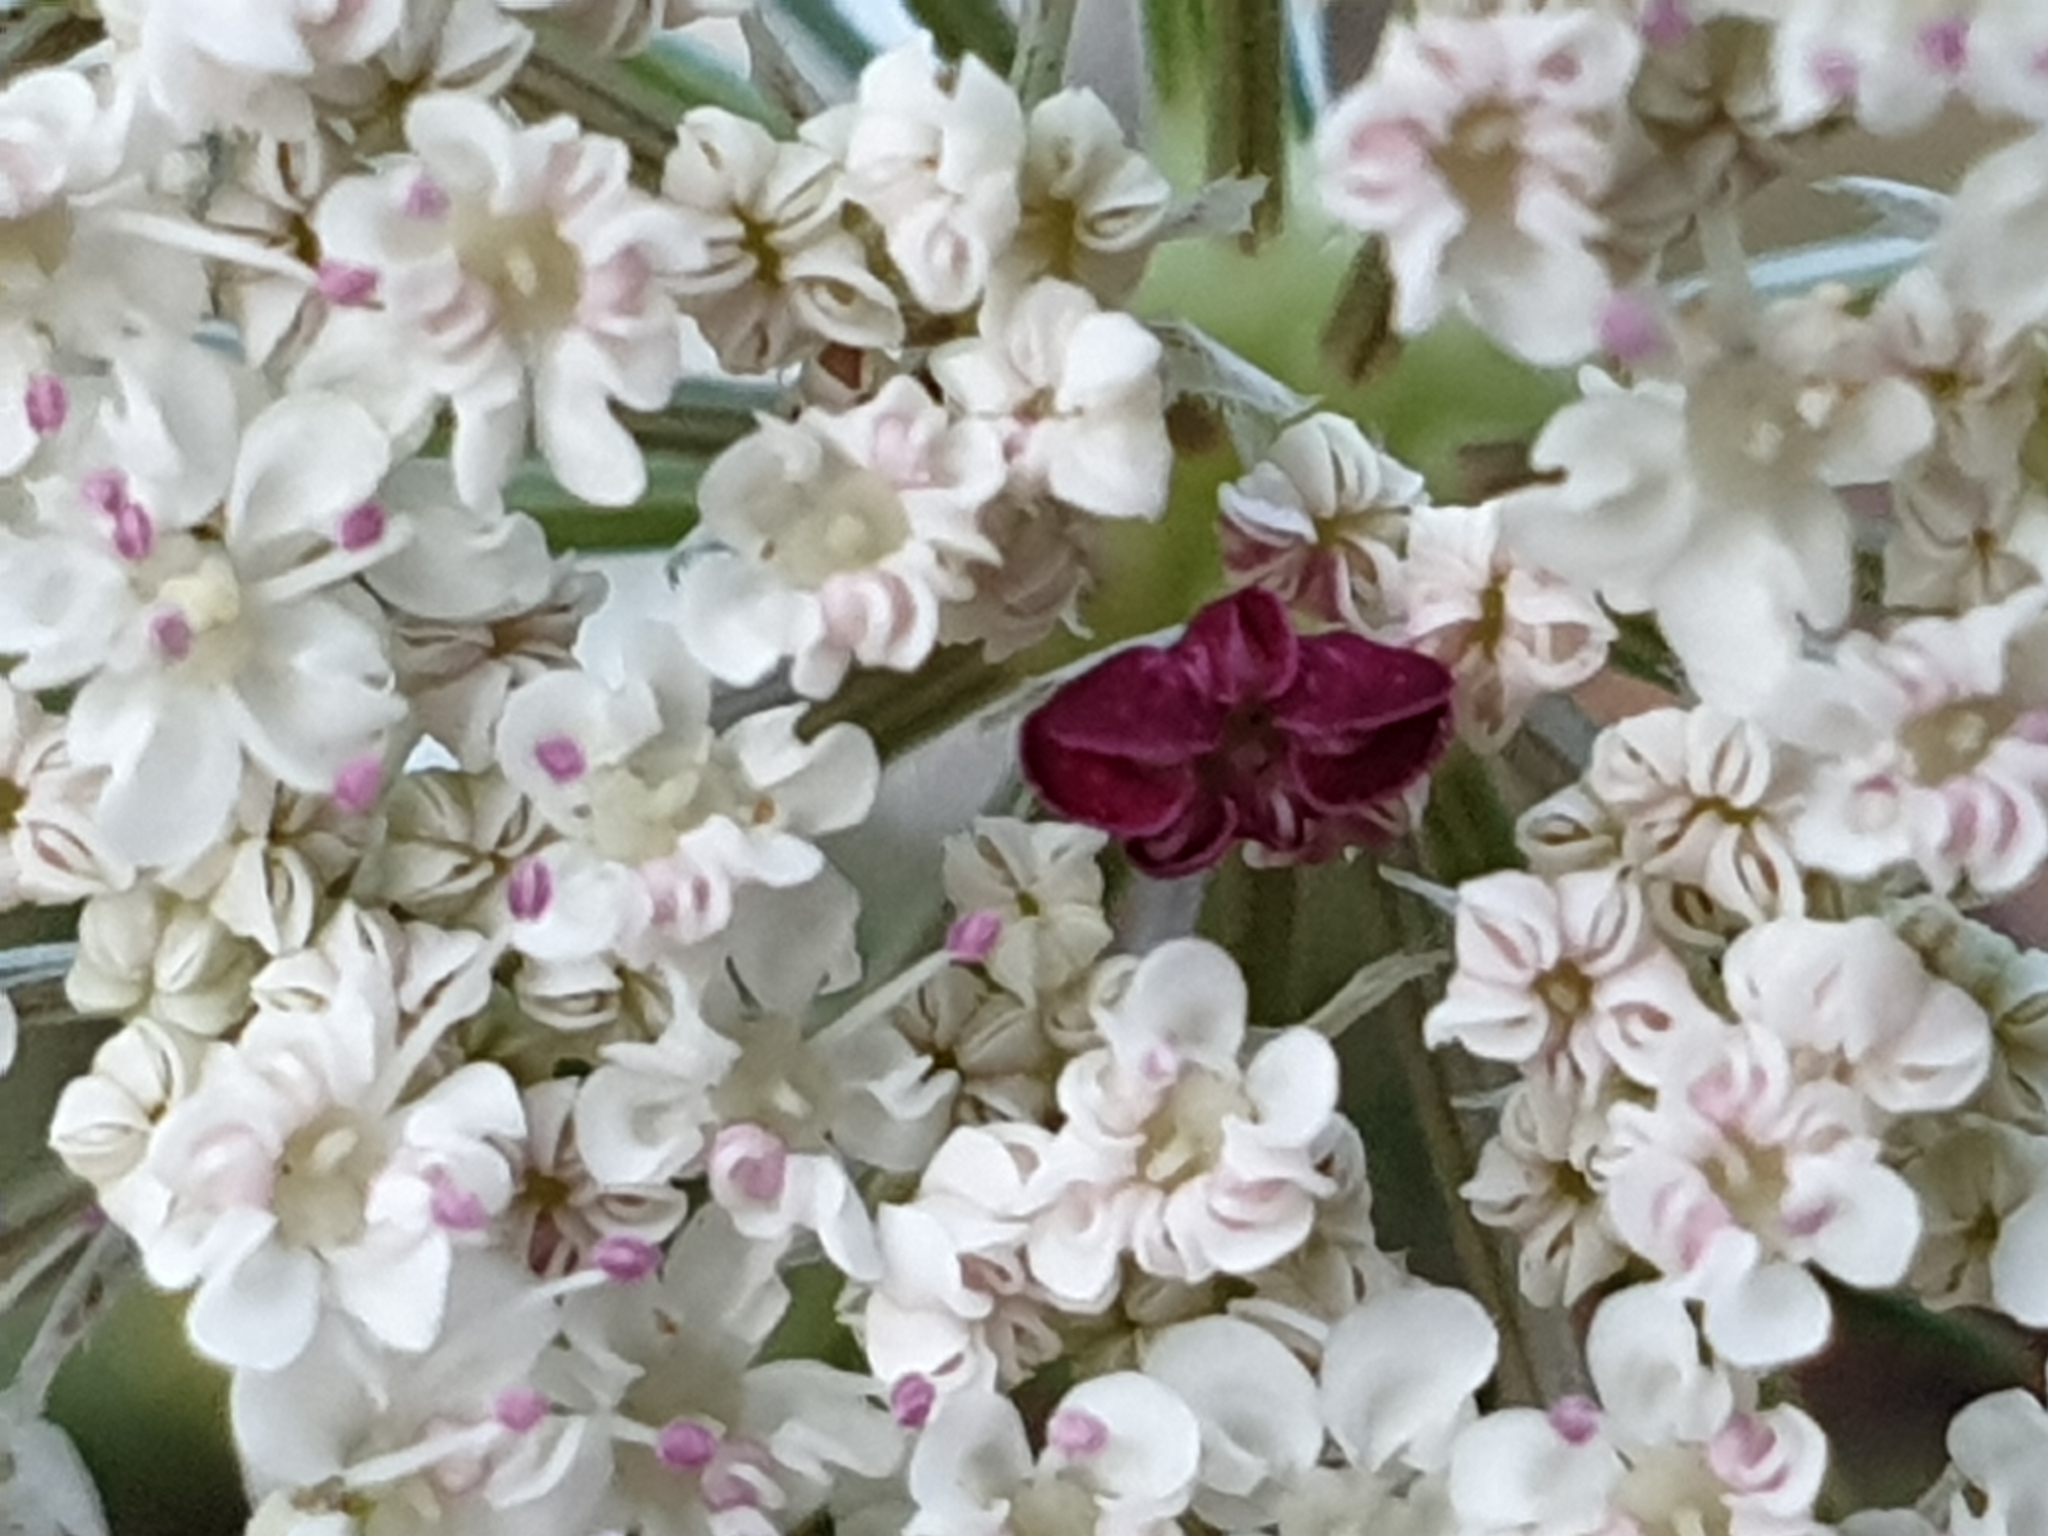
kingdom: Plantae
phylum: Tracheophyta
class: Magnoliopsida
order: Apiales
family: Apiaceae
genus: Daucus
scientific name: Daucus carota
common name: Wild carrot
